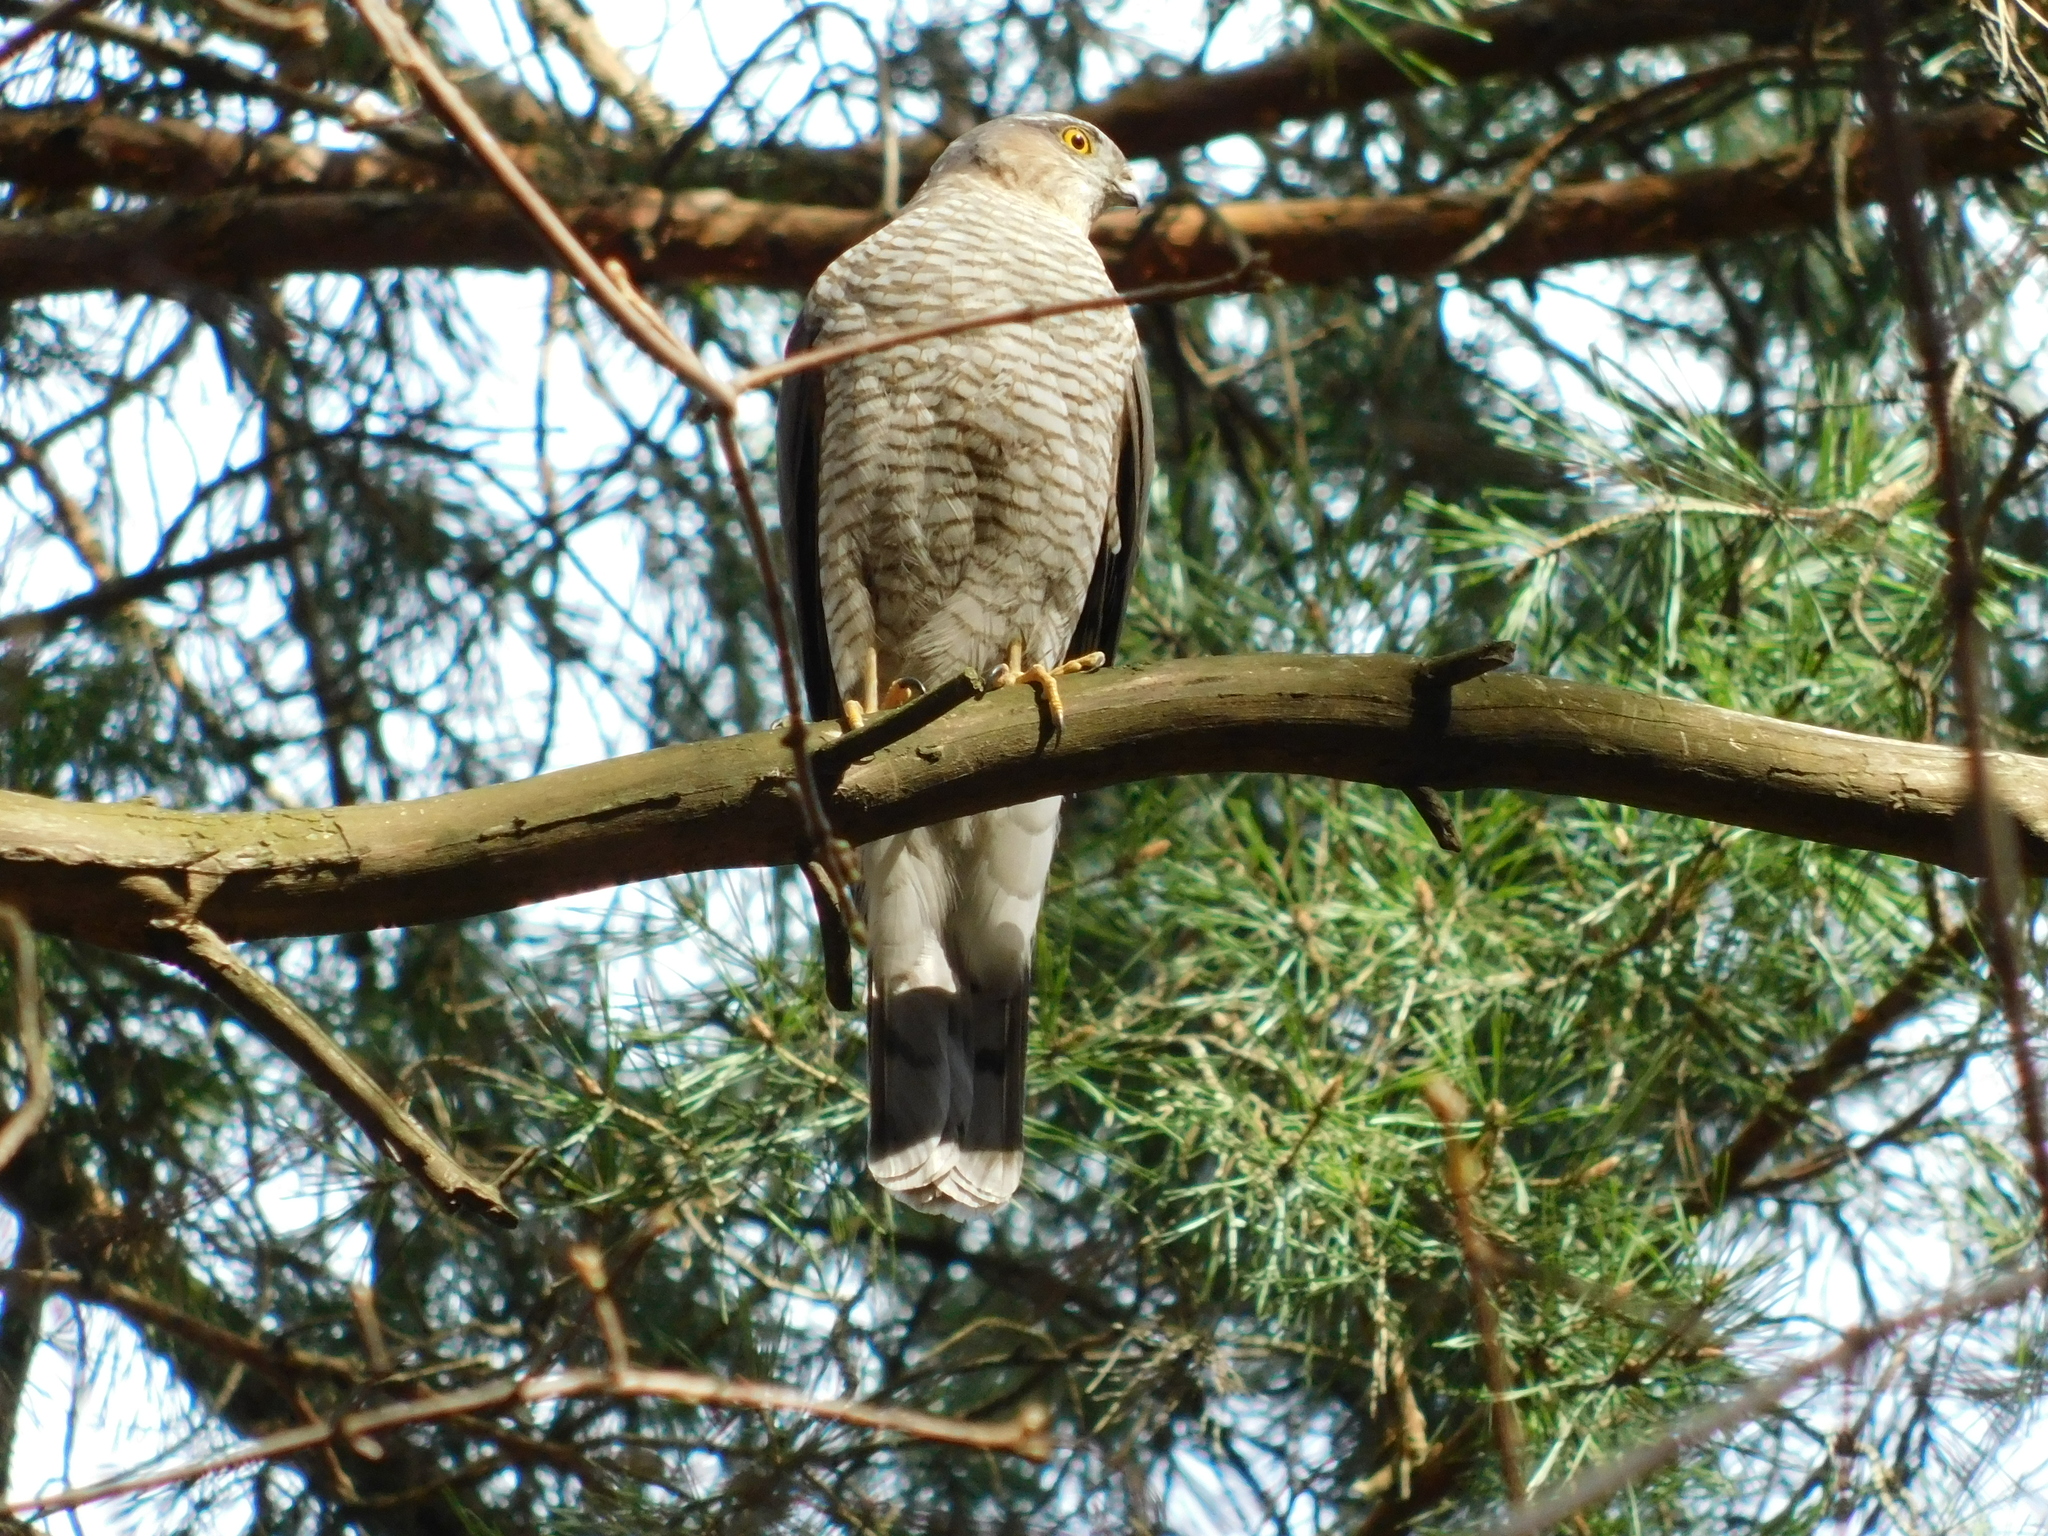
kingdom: Animalia
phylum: Chordata
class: Aves
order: Accipitriformes
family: Accipitridae
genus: Accipiter
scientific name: Accipiter nisus
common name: Eurasian sparrowhawk
